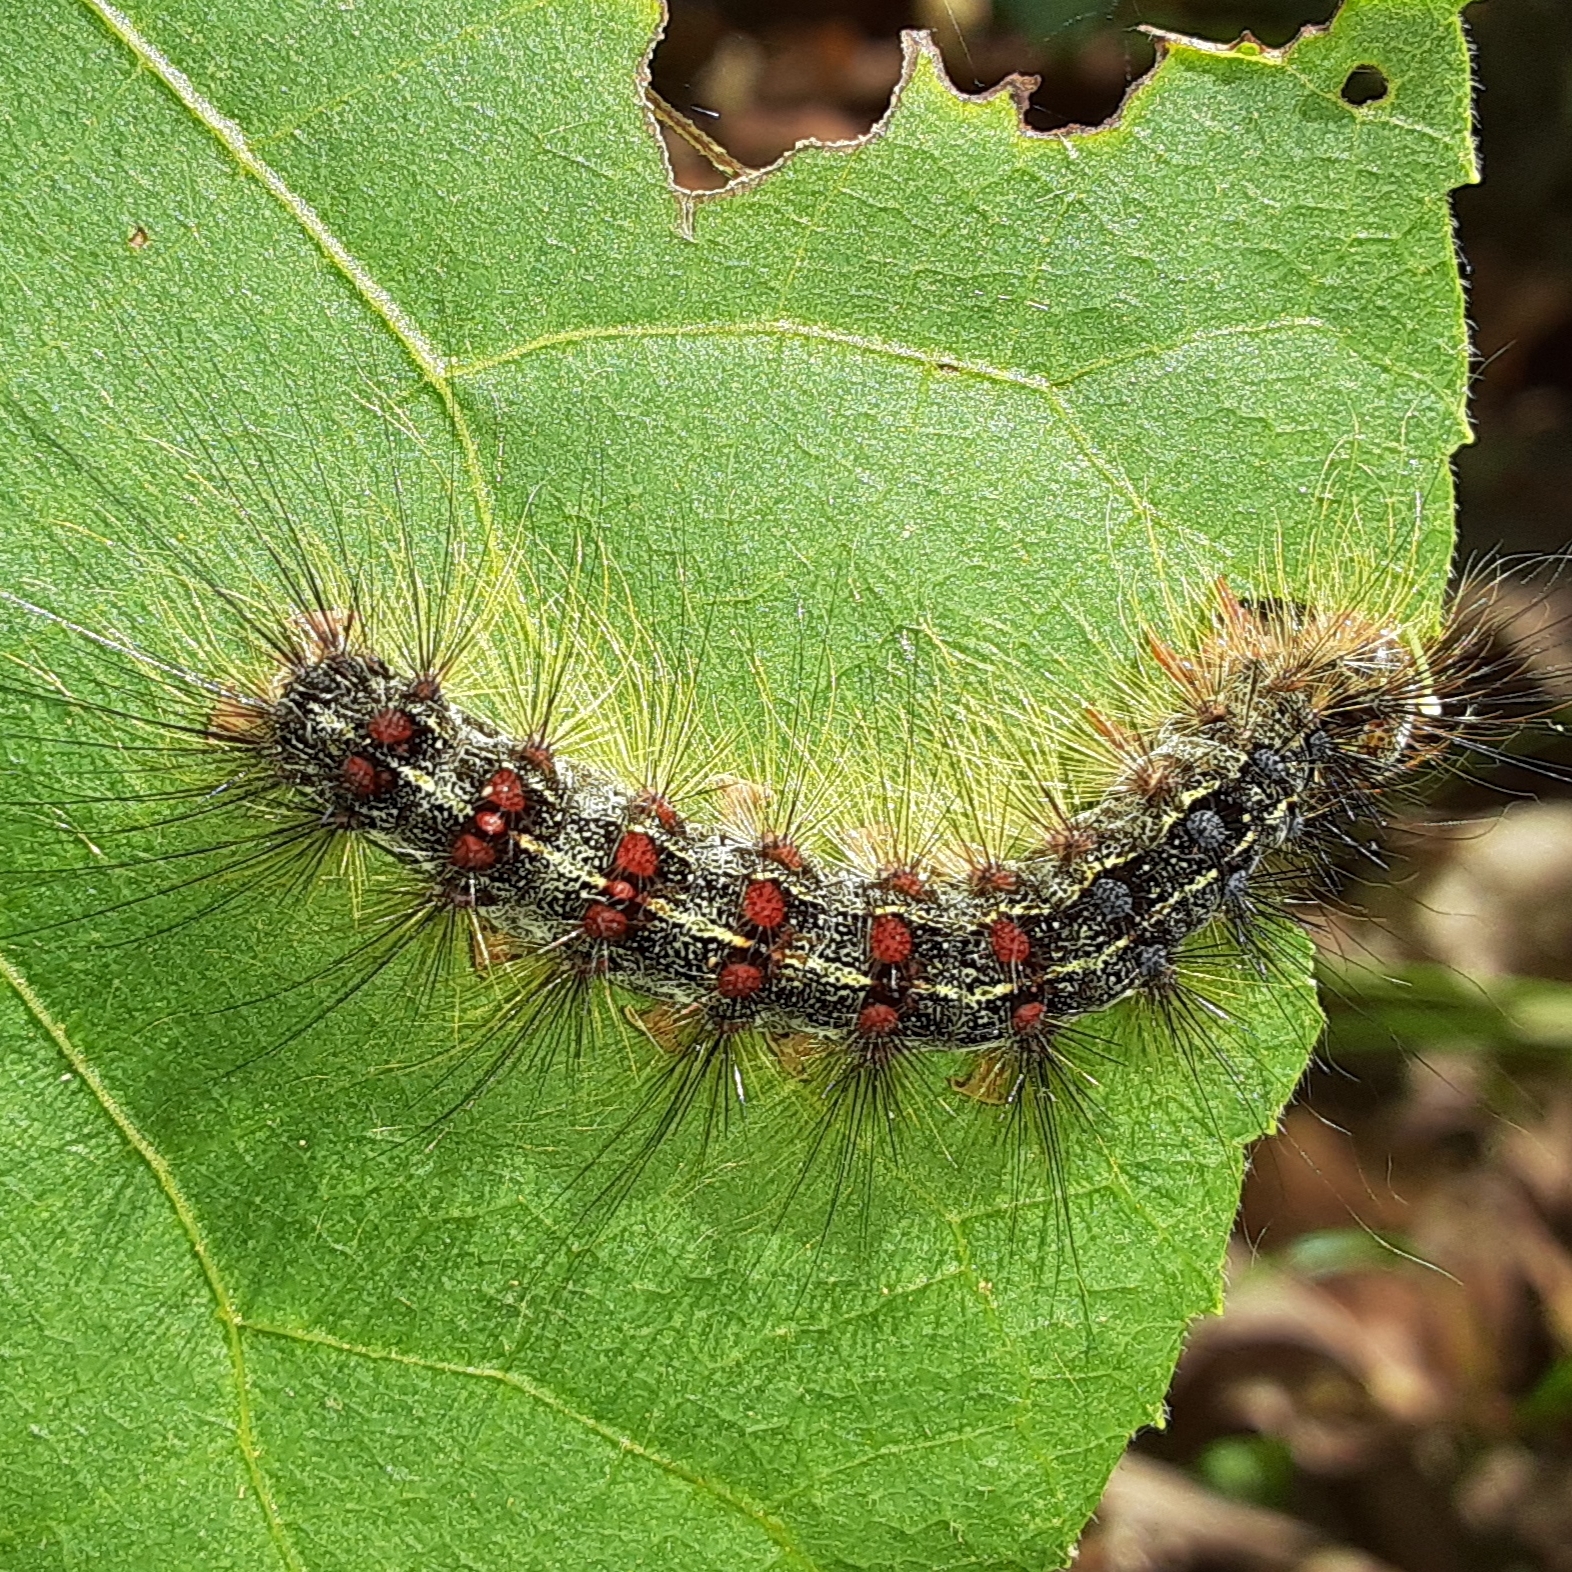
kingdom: Animalia
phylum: Arthropoda
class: Insecta
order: Lepidoptera
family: Erebidae
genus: Lymantria
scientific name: Lymantria dispar
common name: Gypsy moth
